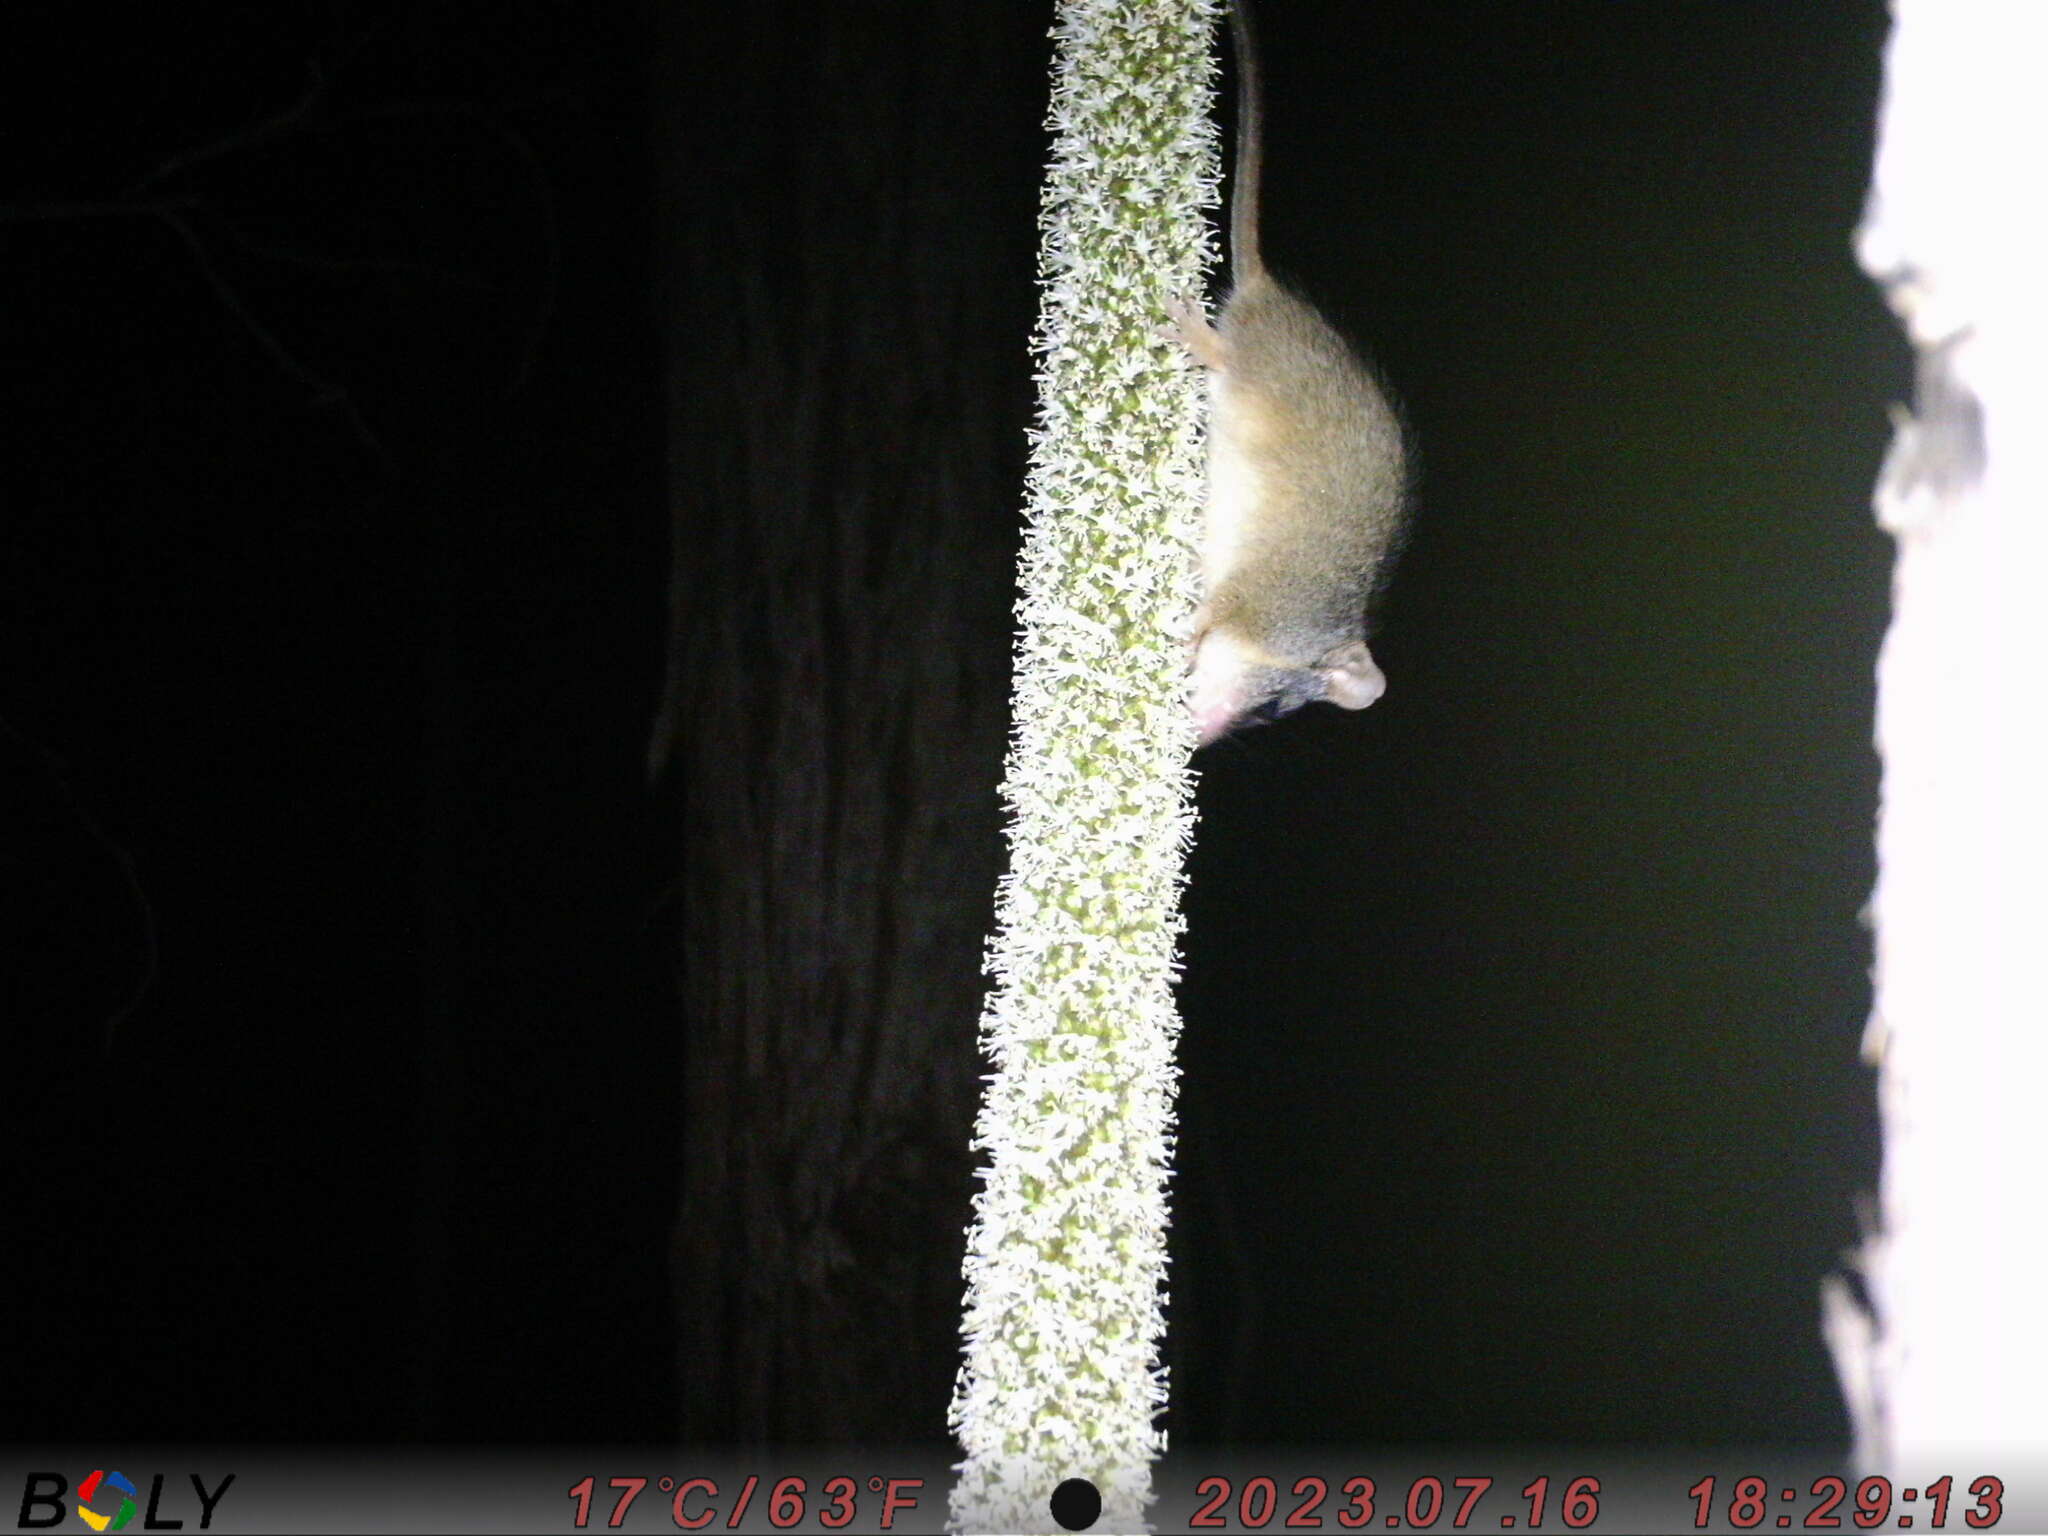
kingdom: Animalia
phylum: Chordata
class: Mammalia
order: Dasyuromorphia
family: Dasyuridae
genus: Antechinus
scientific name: Antechinus flavipes
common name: Yellow-footed antechinus
